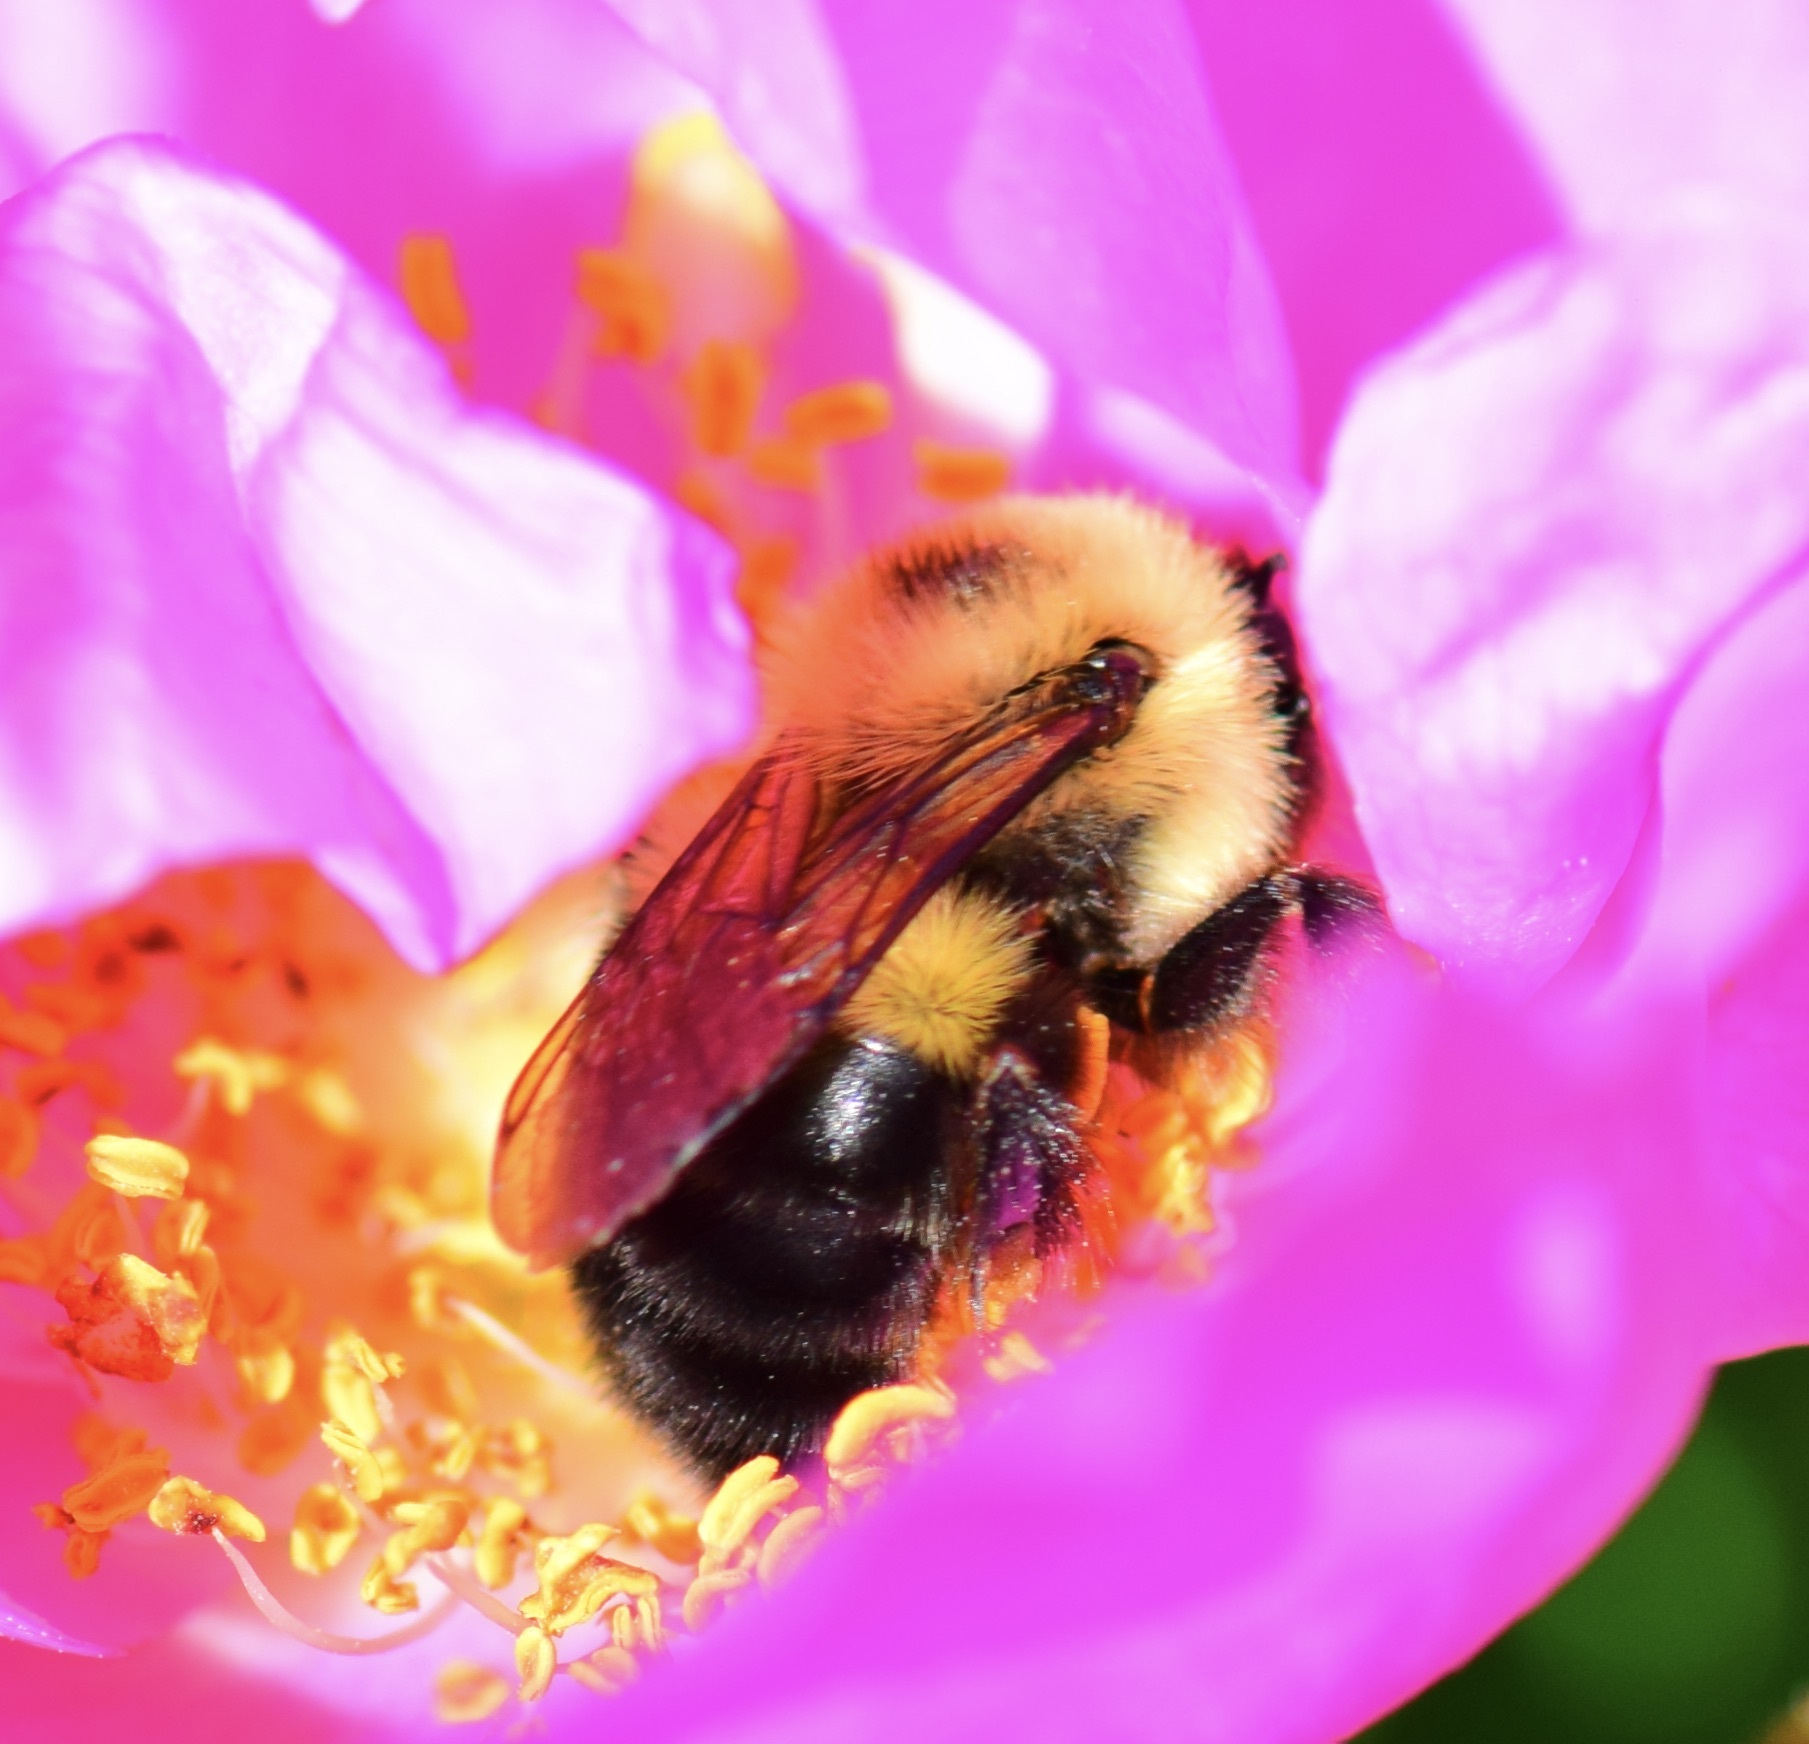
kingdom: Animalia
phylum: Arthropoda
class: Insecta
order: Hymenoptera
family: Apidae
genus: Bombus
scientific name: Bombus bimaculatus
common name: Two-spotted bumble bee
